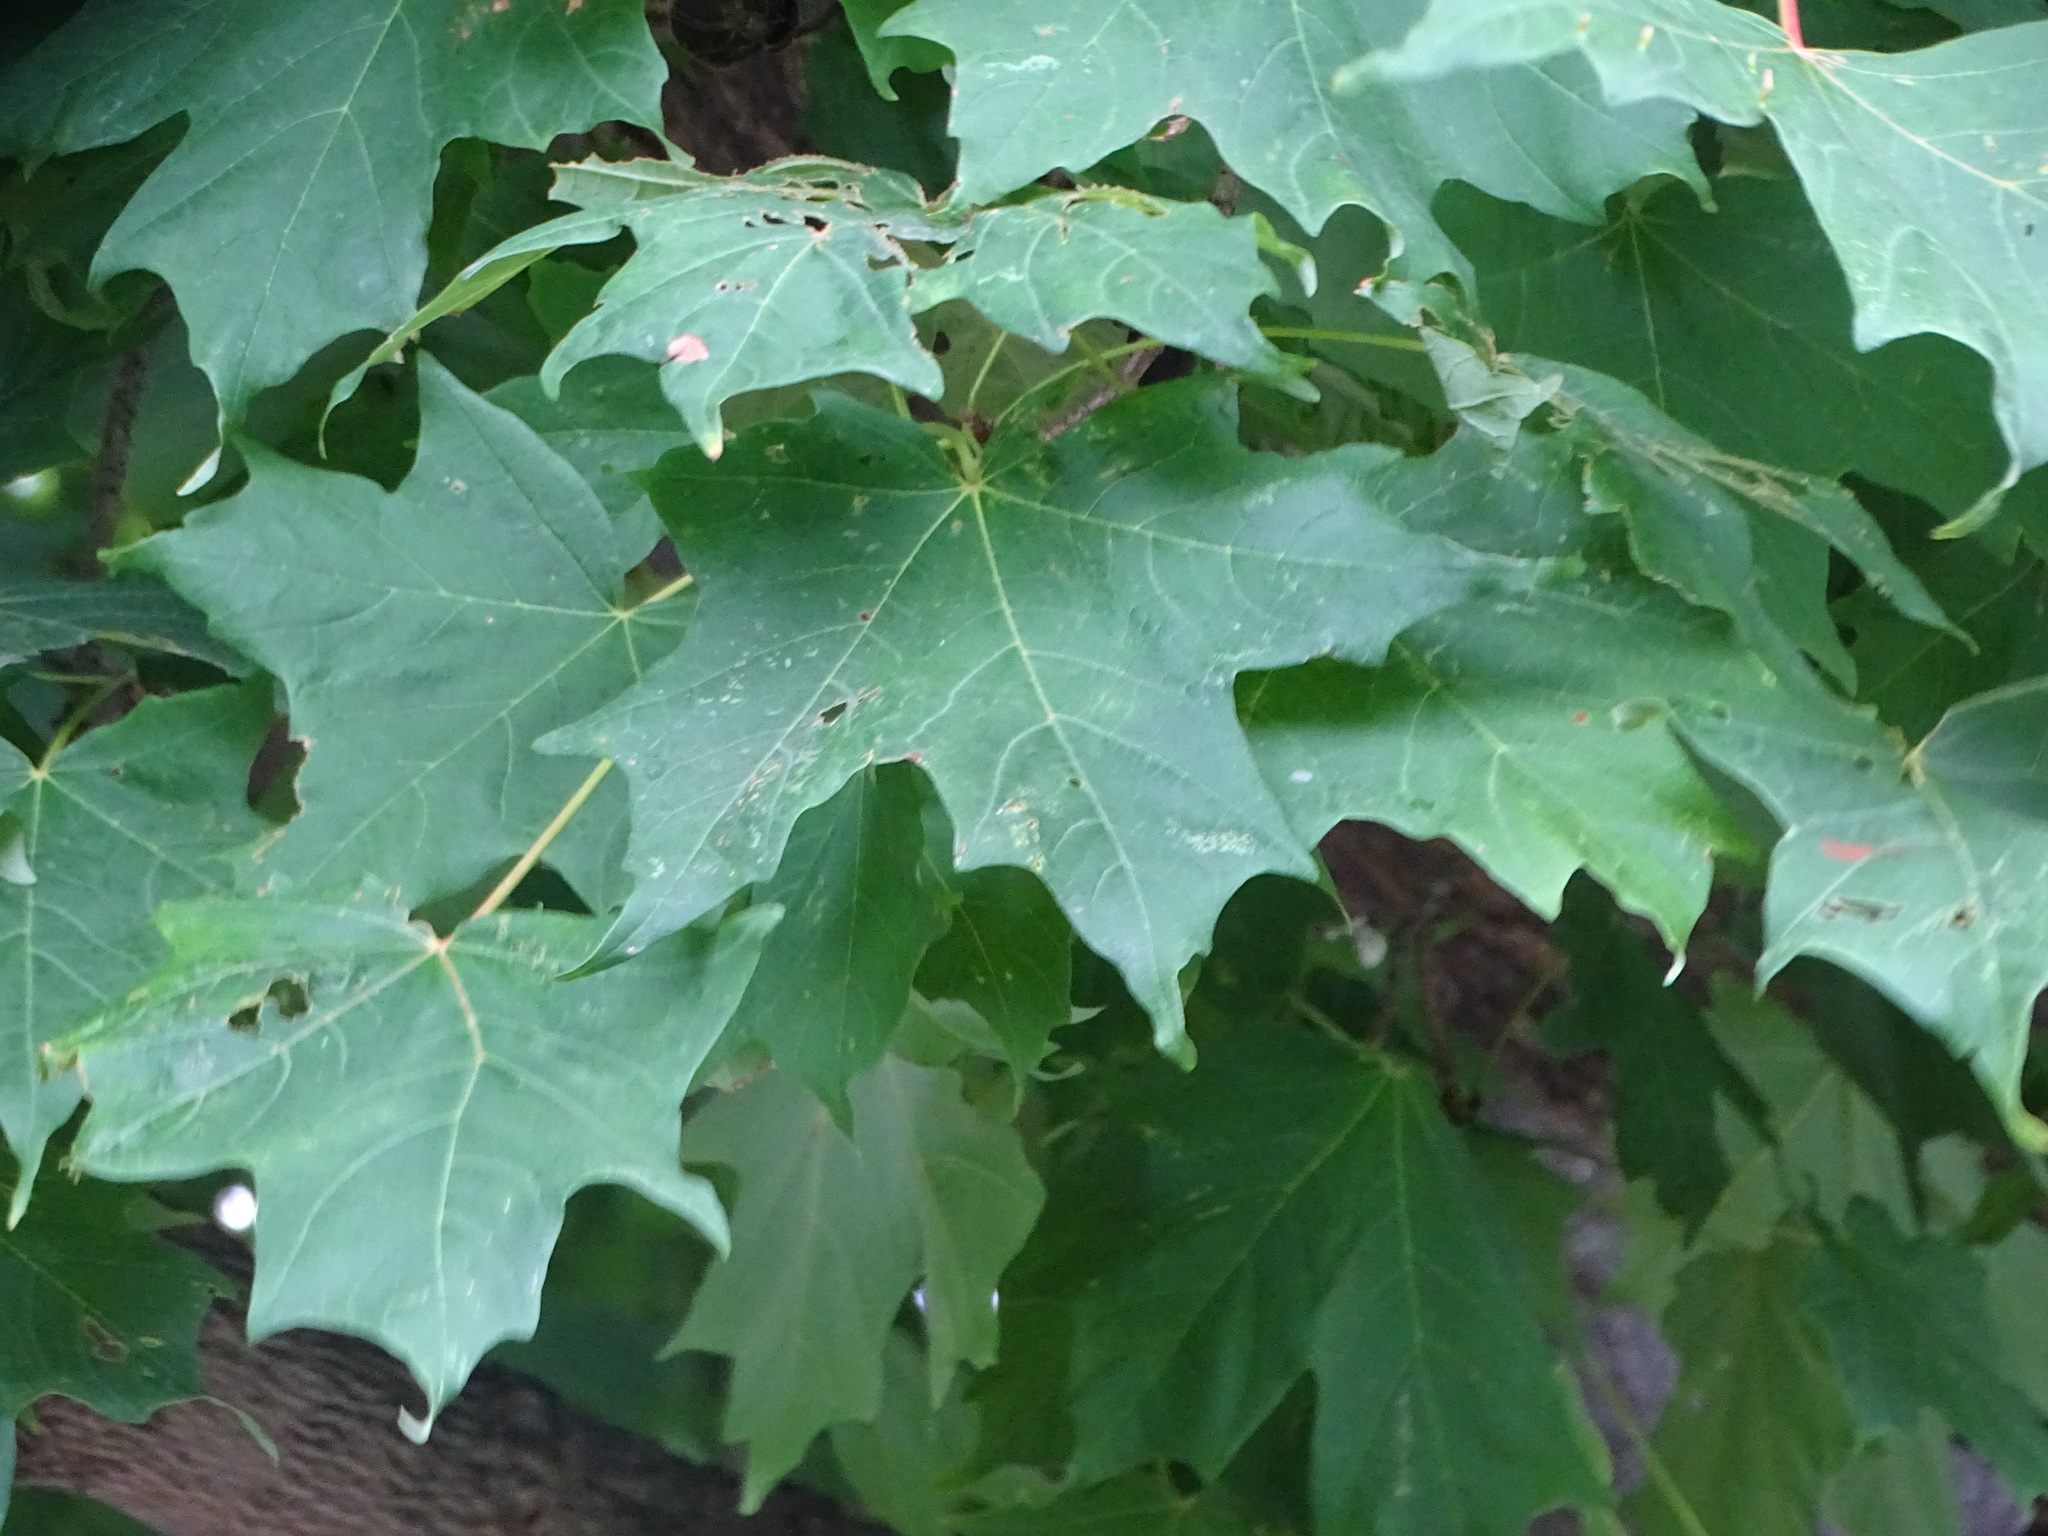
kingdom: Plantae
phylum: Tracheophyta
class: Magnoliopsida
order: Sapindales
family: Sapindaceae
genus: Acer
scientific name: Acer saccharum
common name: Sugar maple
